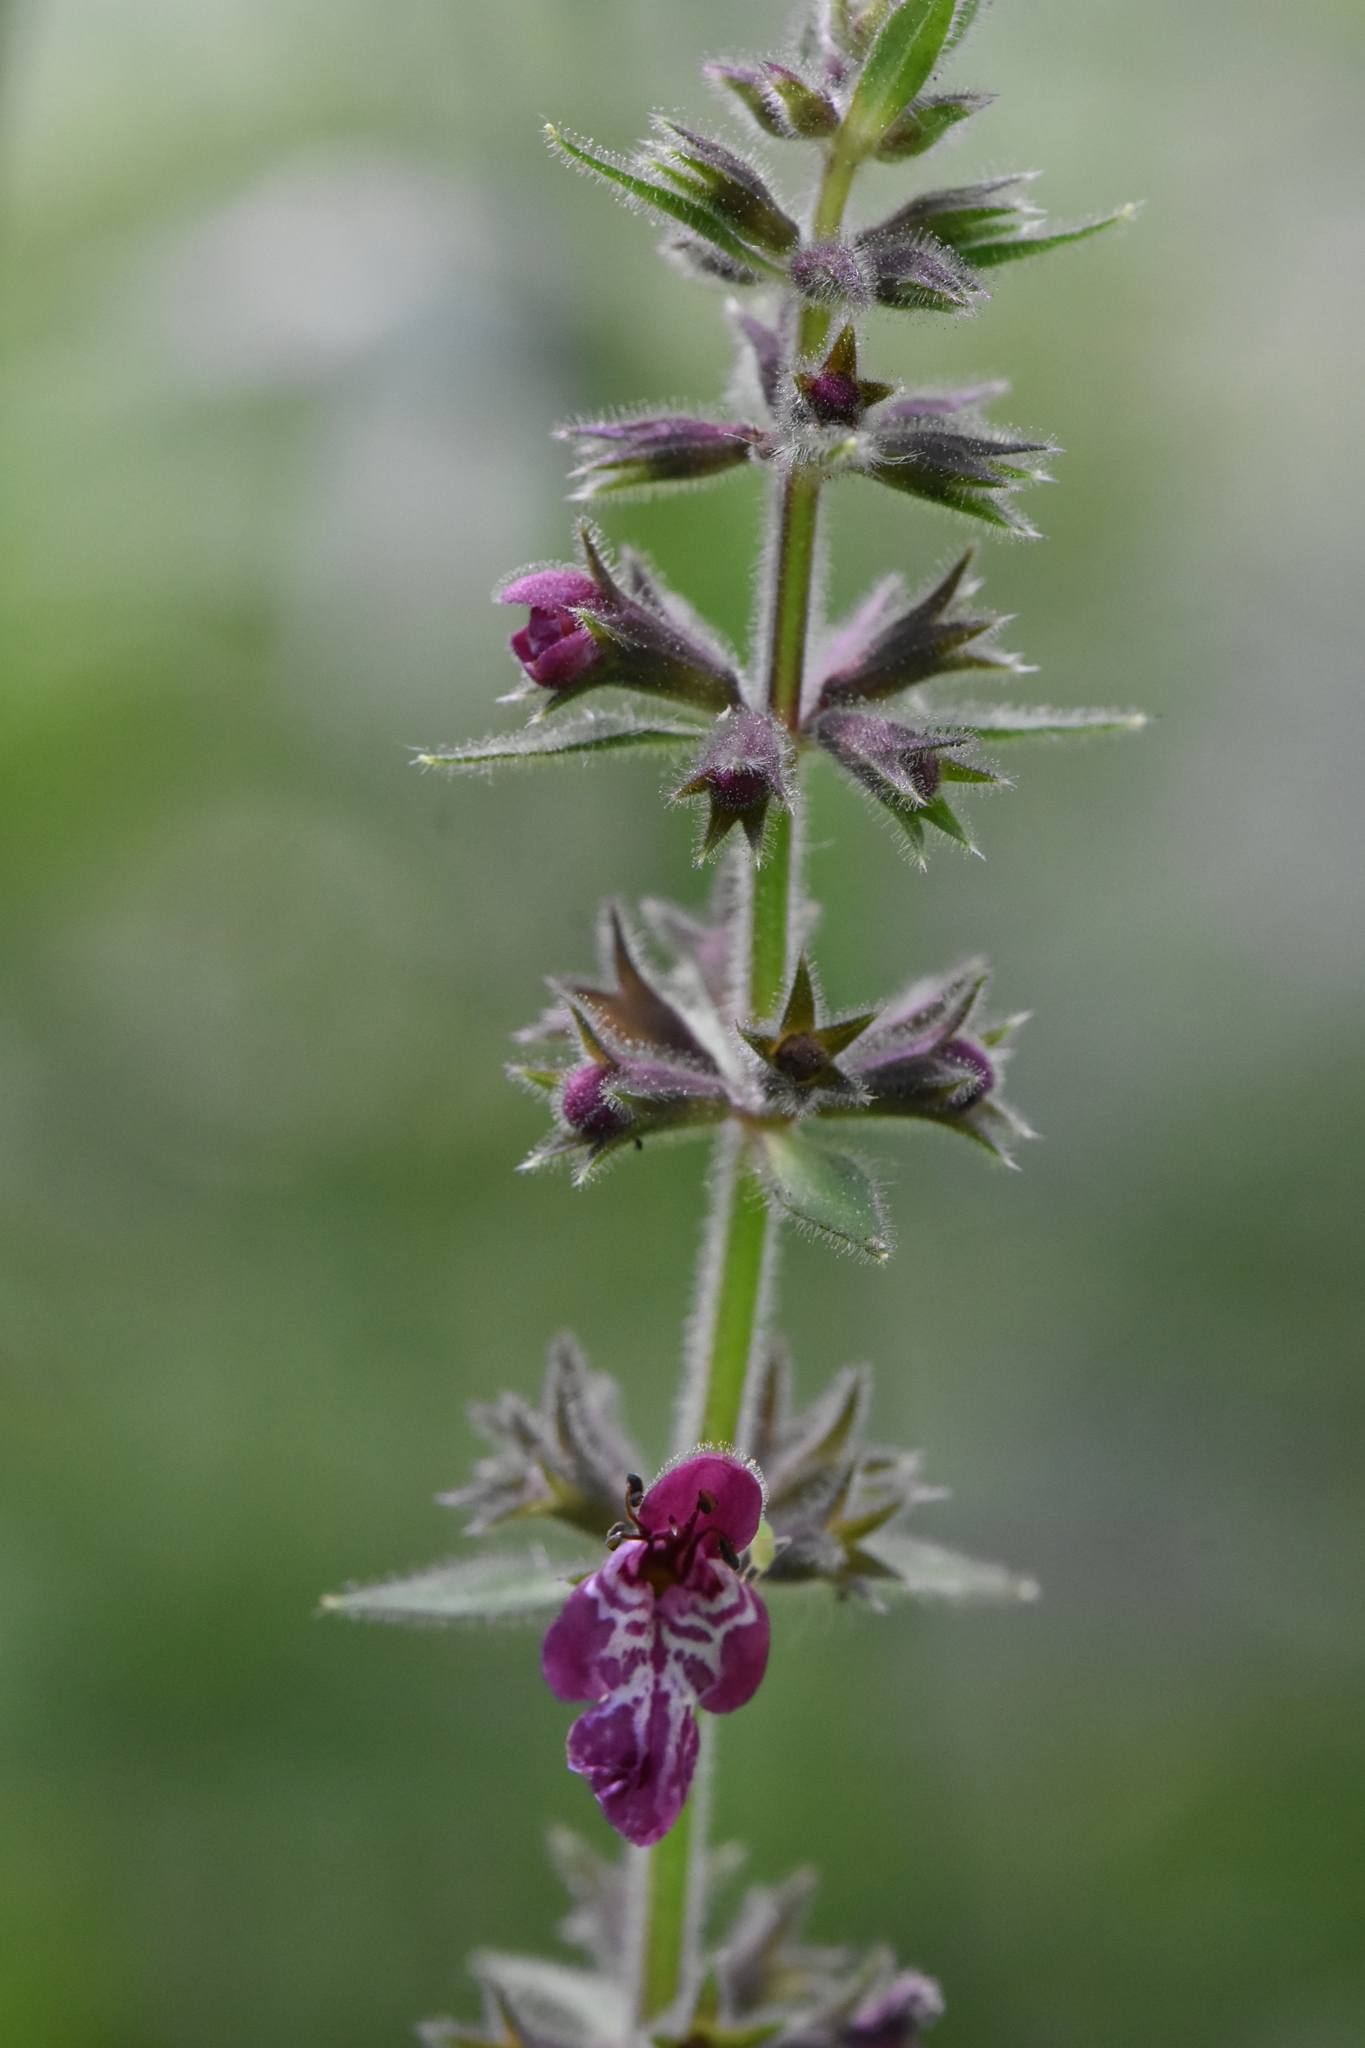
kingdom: Plantae
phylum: Tracheophyta
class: Magnoliopsida
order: Lamiales
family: Lamiaceae
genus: Stachys
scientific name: Stachys sylvatica
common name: Hedge woundwort
